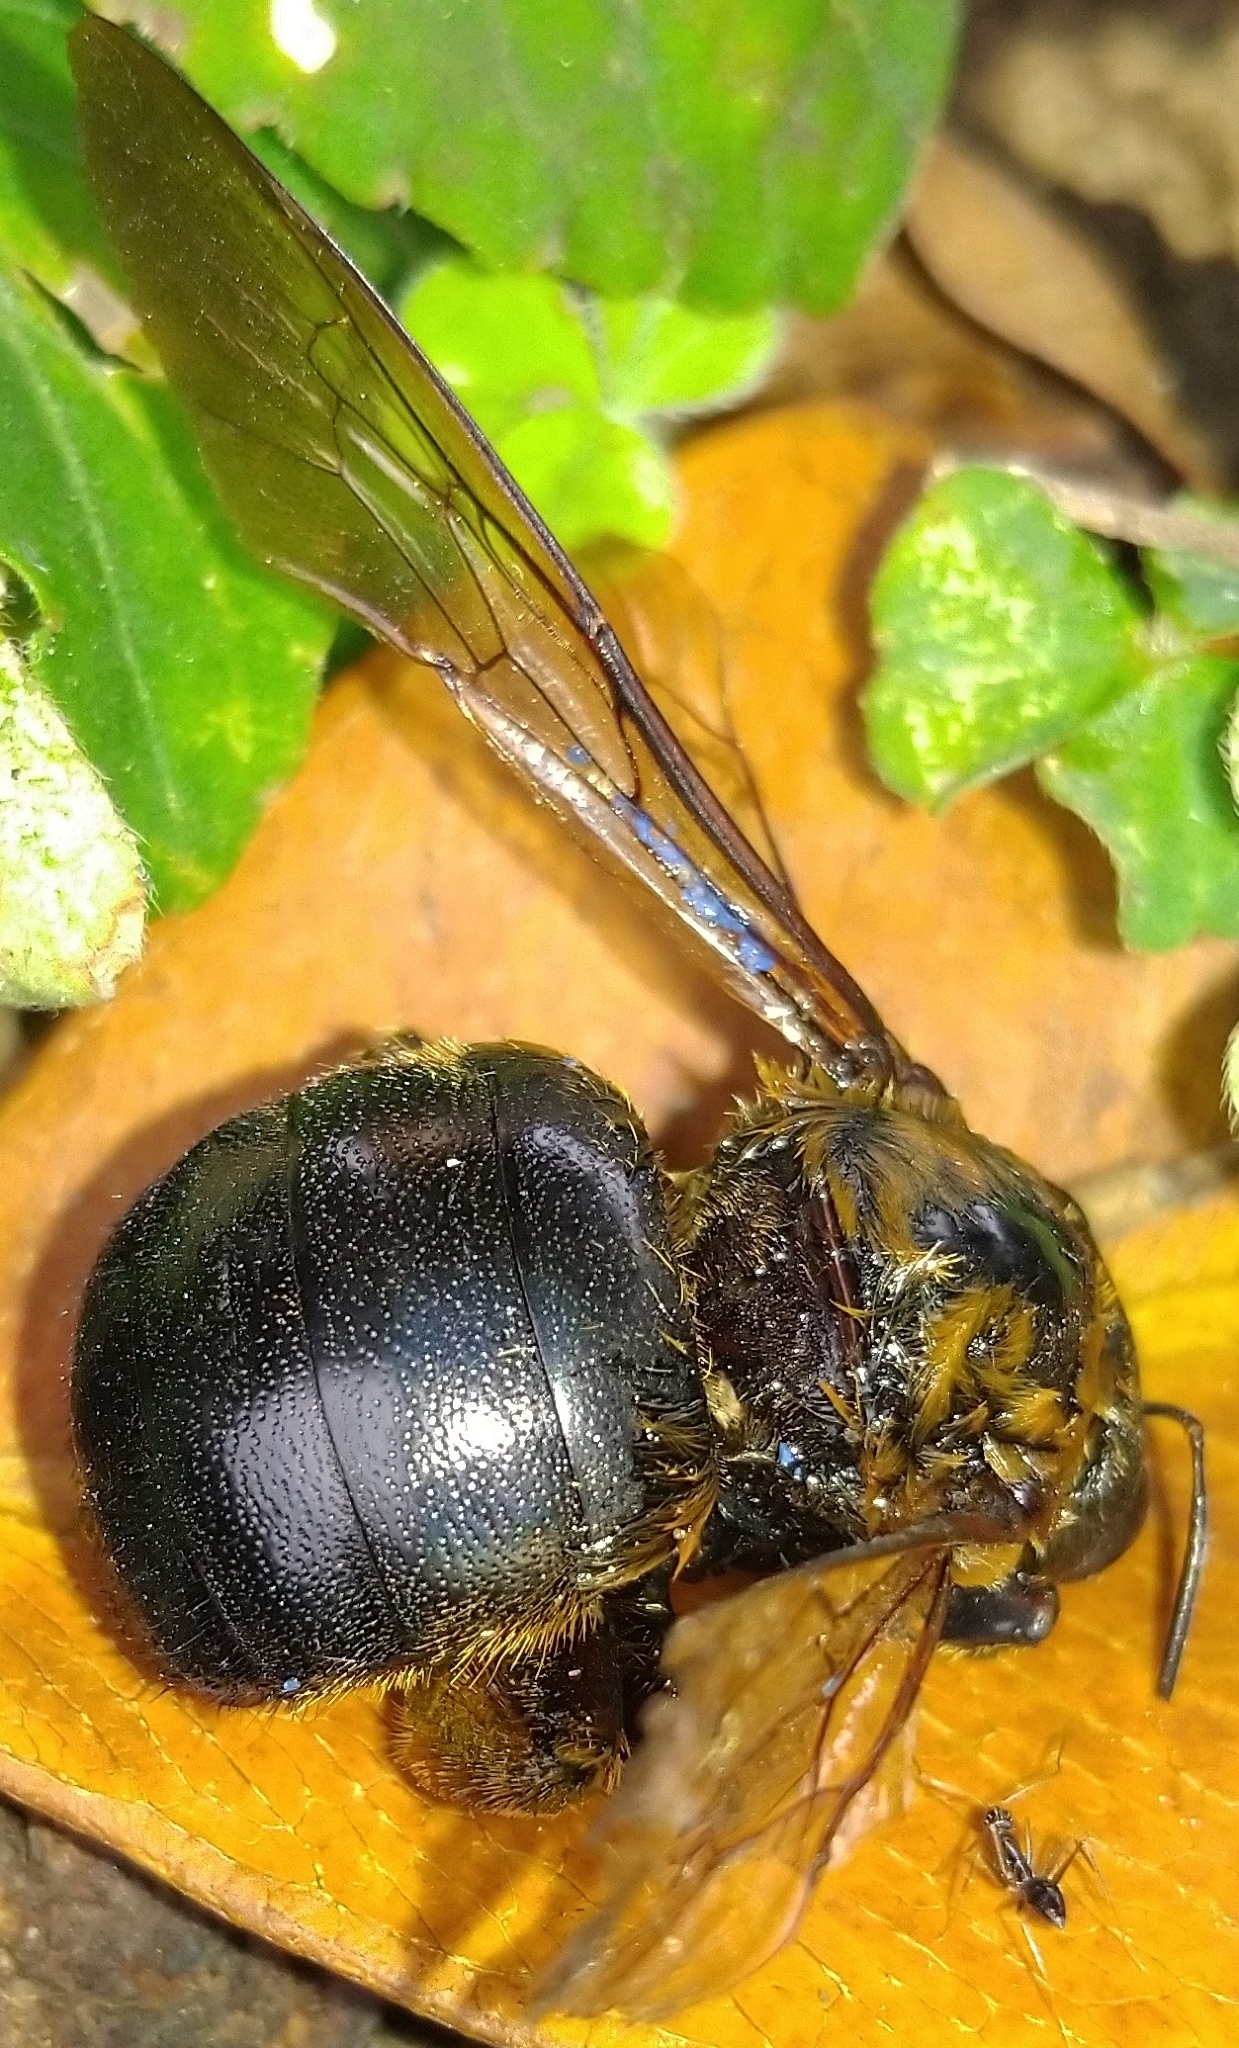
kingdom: Animalia
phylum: Arthropoda
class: Insecta
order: Hymenoptera
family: Apidae
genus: Xylocopa
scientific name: Xylocopa ruficeps
